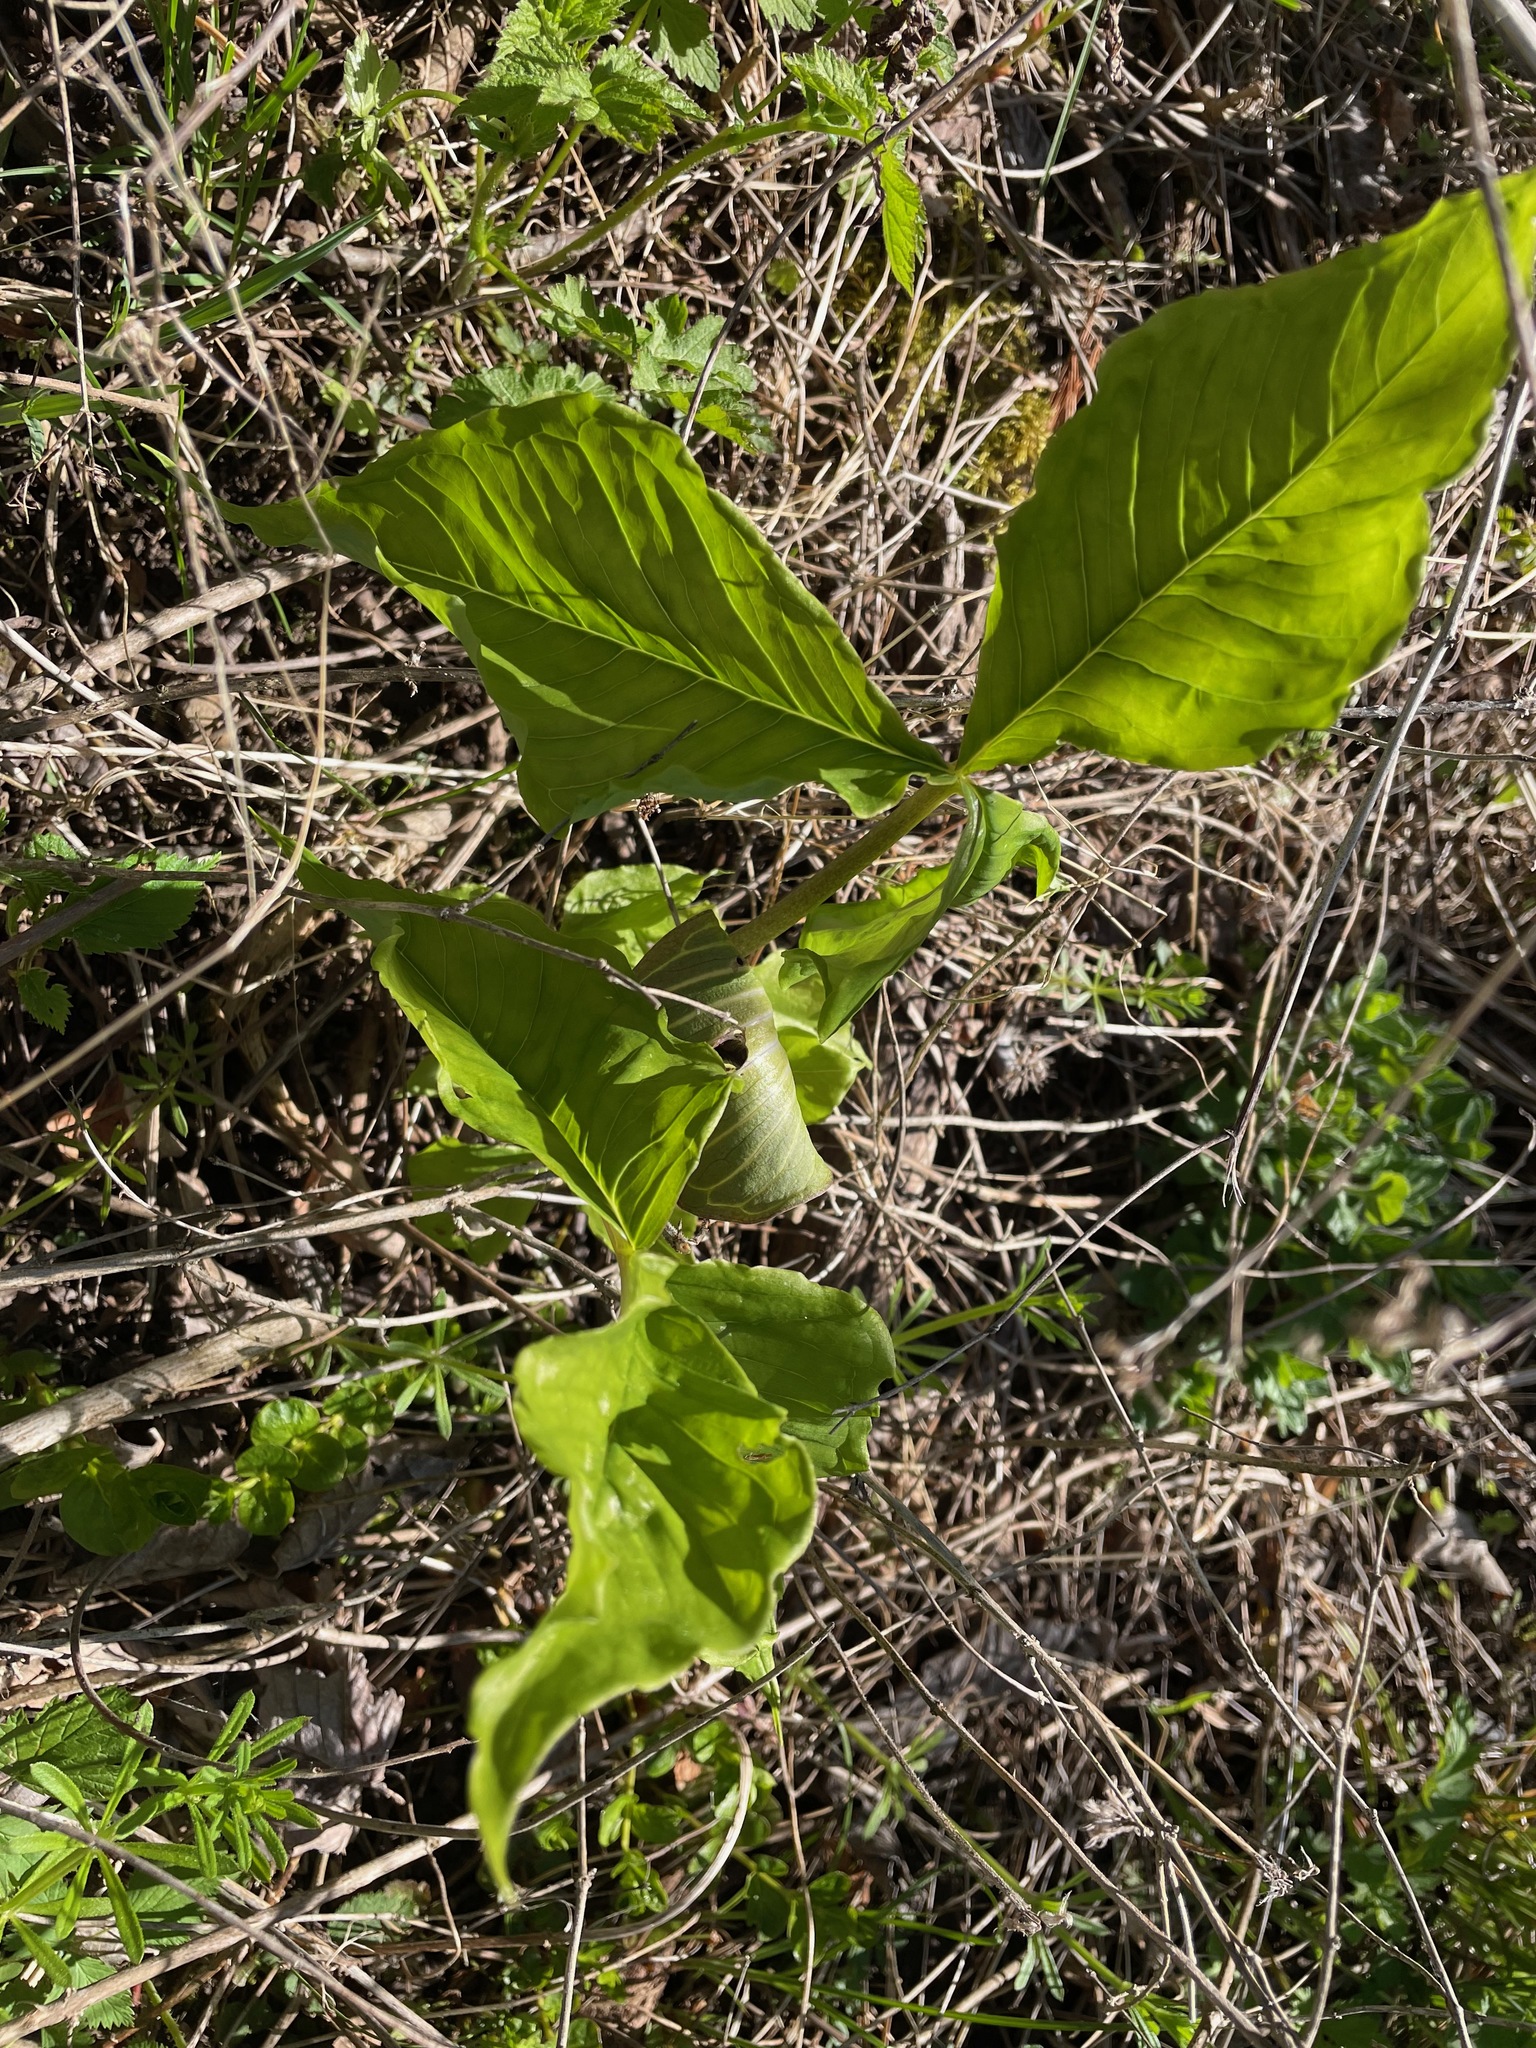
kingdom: Plantae
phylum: Tracheophyta
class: Liliopsida
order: Alismatales
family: Araceae
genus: Arisaema
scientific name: Arisaema triphyllum
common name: Jack-in-the-pulpit
